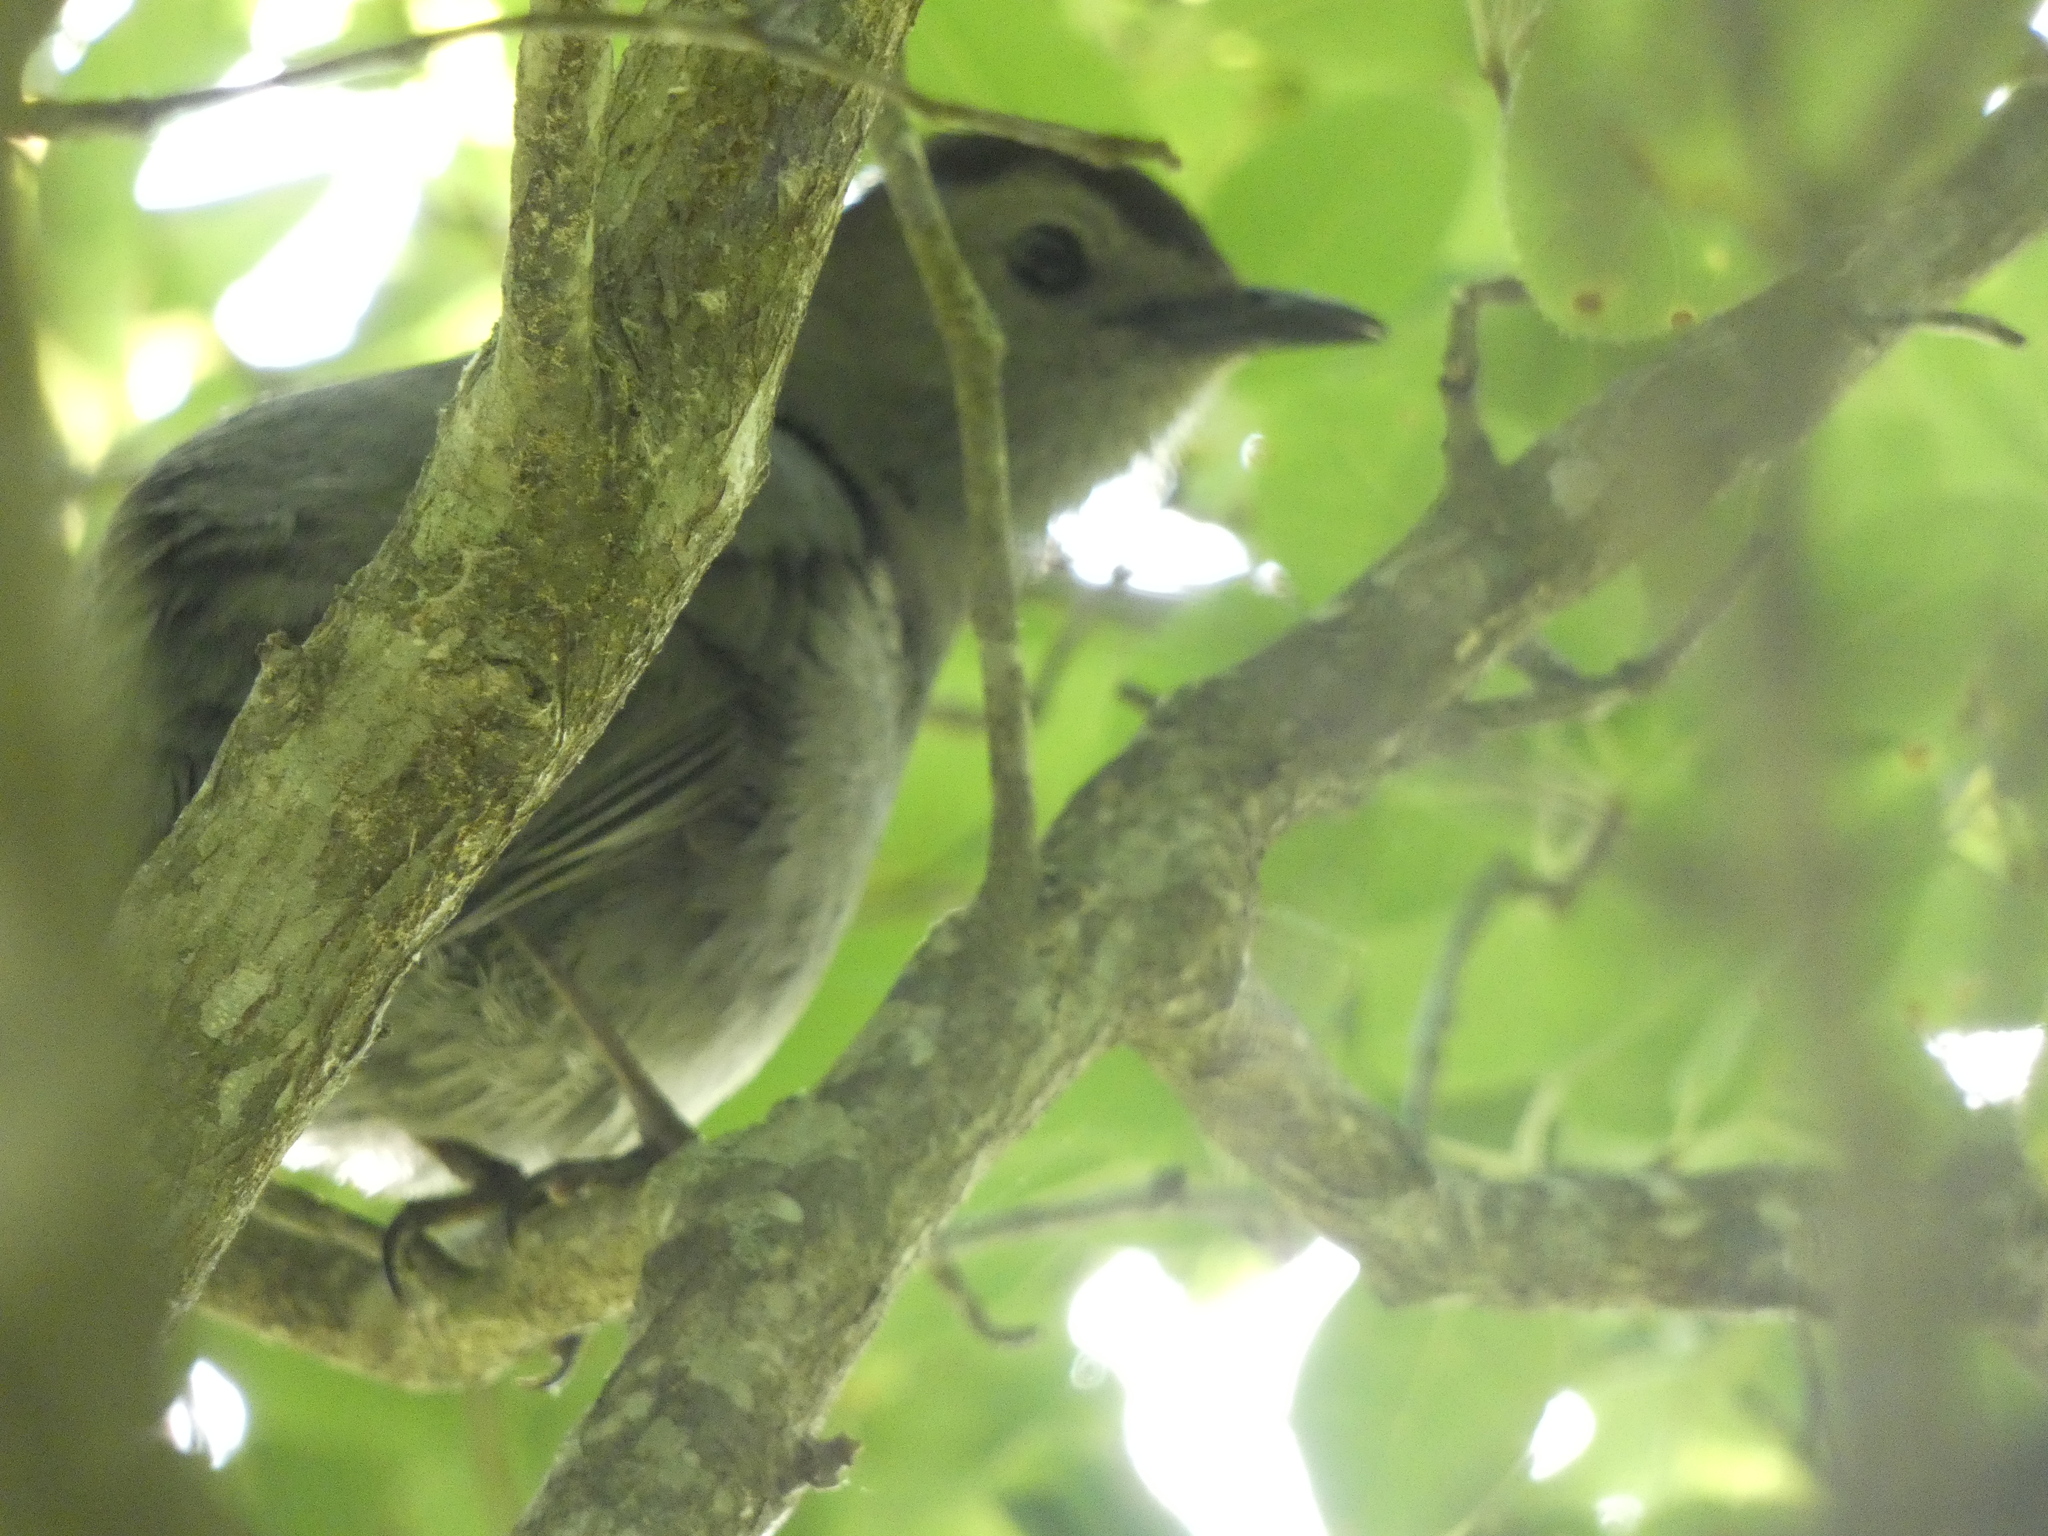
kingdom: Animalia
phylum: Chordata
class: Aves
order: Passeriformes
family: Mimidae
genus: Dumetella
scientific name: Dumetella carolinensis
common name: Gray catbird
